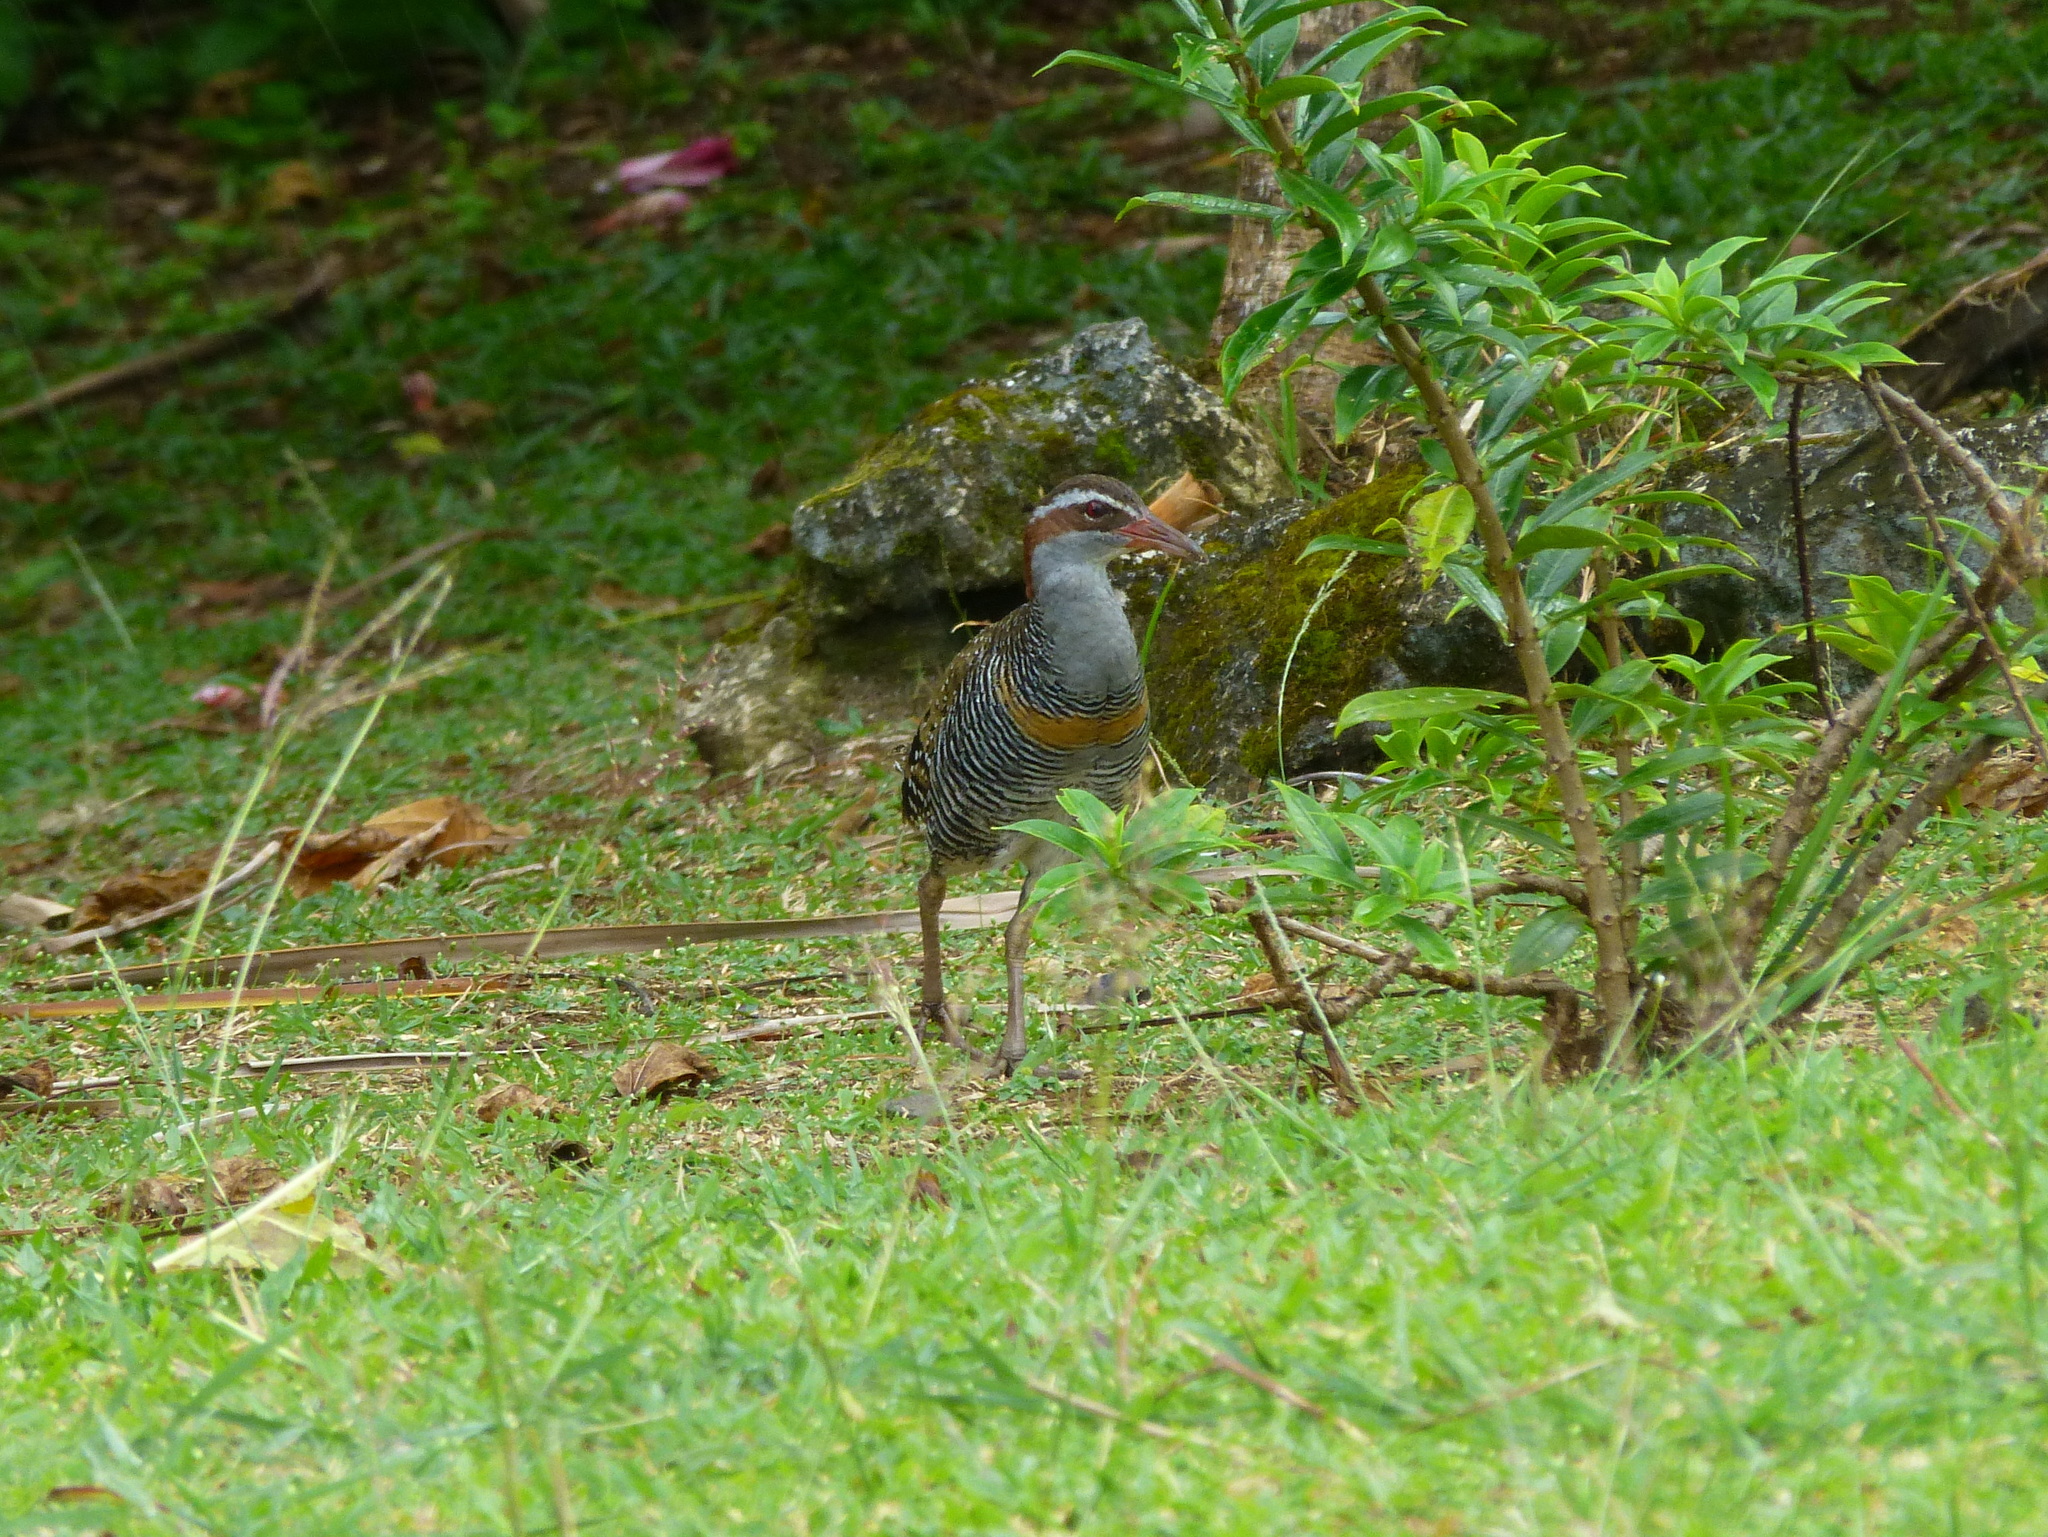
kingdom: Animalia
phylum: Chordata
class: Aves
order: Gruiformes
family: Rallidae
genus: Gallirallus
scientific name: Gallirallus philippensis
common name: Buff-banded rail
